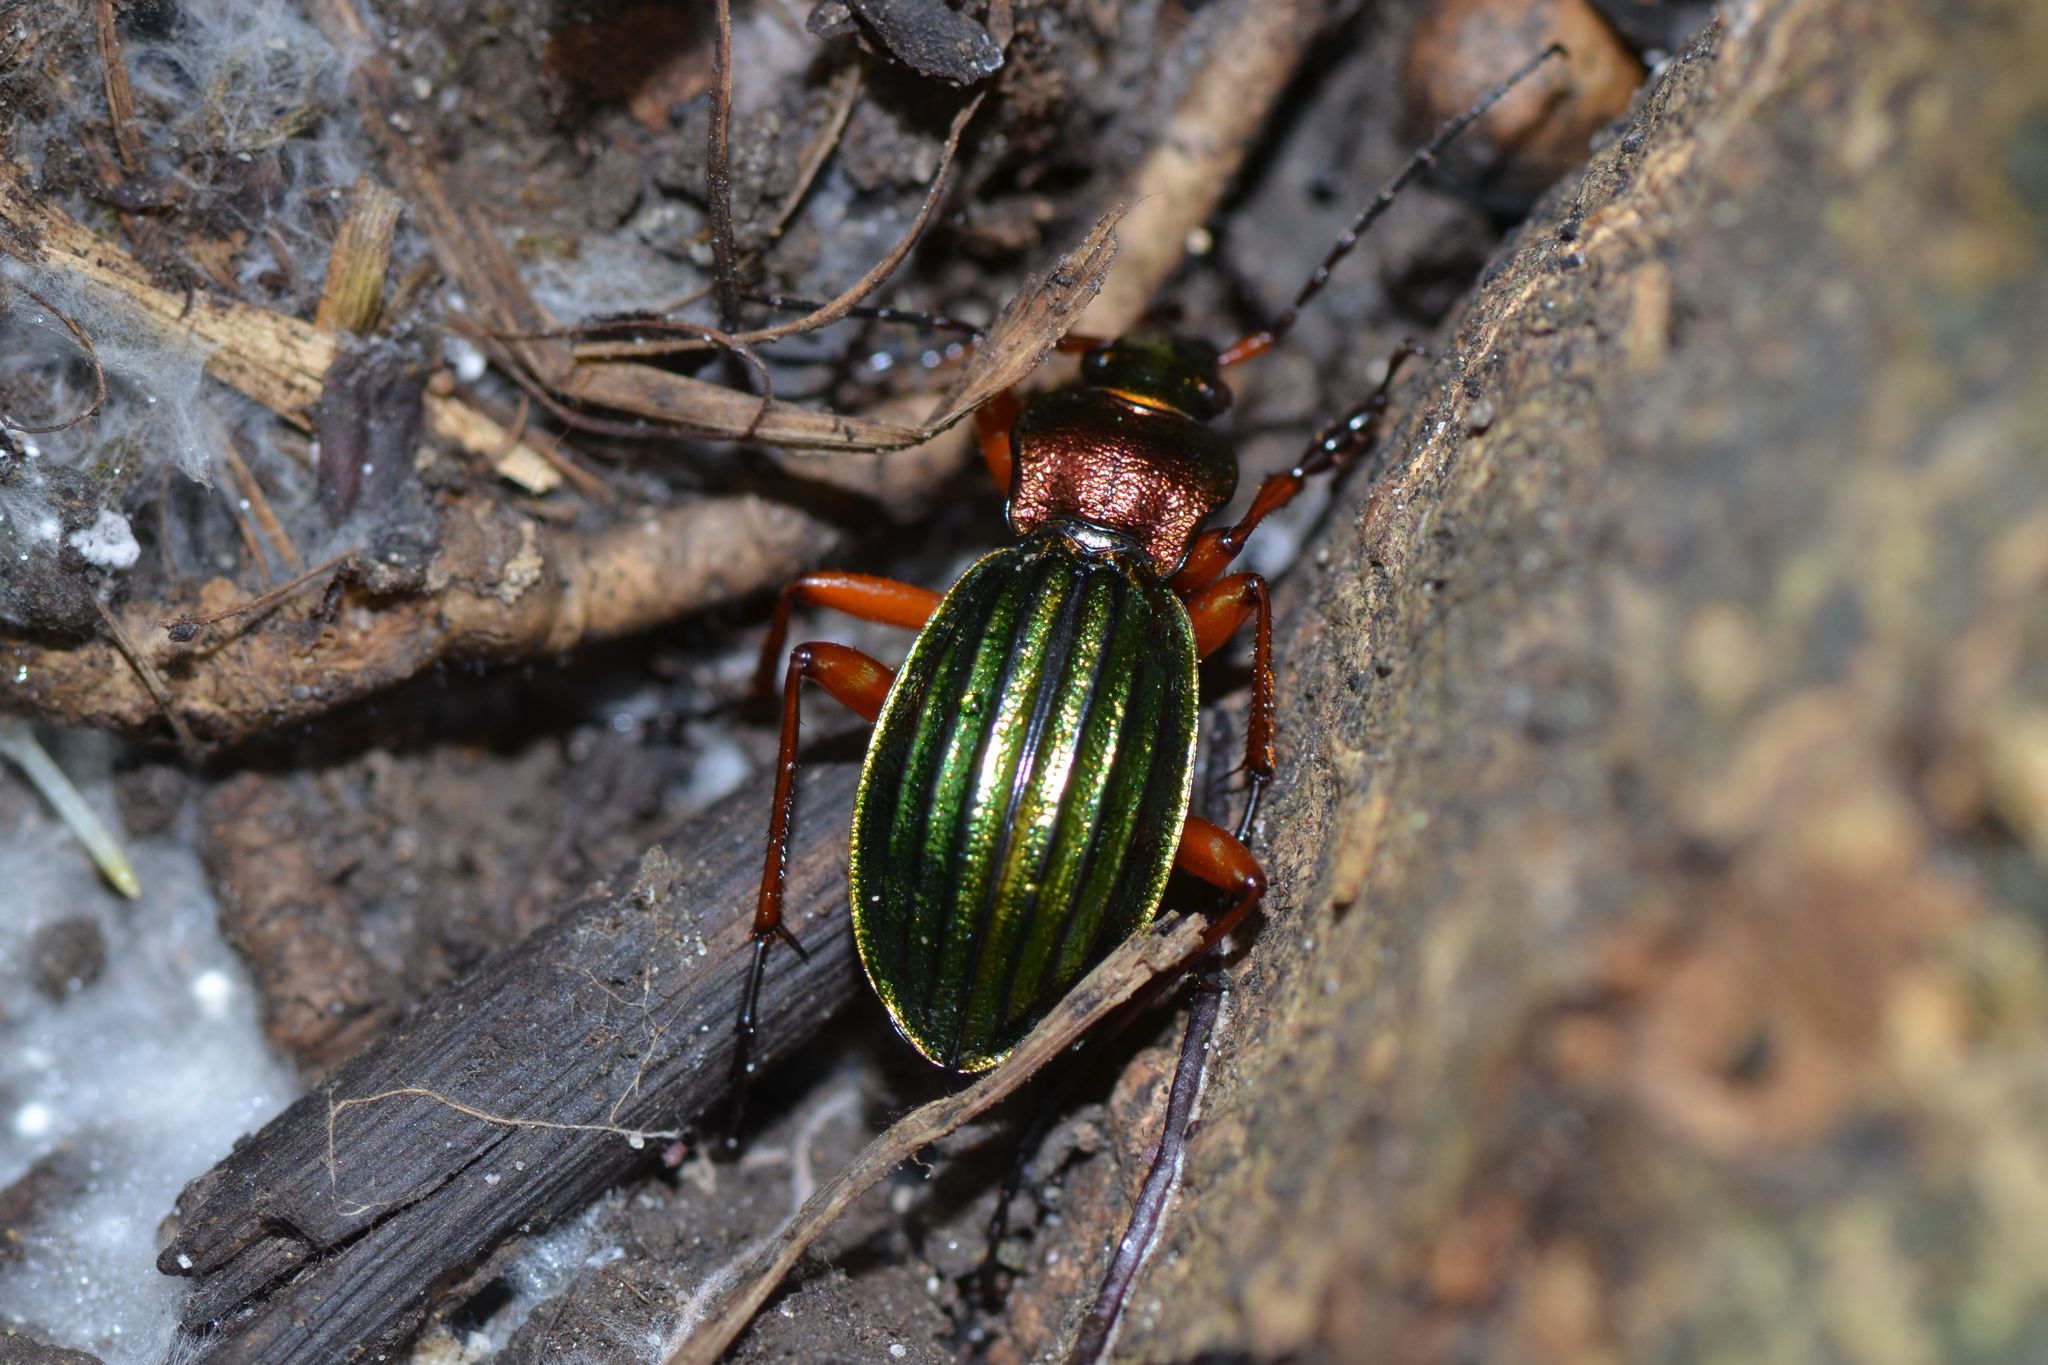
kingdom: Animalia
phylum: Arthropoda
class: Insecta
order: Coleoptera
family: Carabidae
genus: Carabus
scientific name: Carabus auronitens
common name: Carabus auronitens
